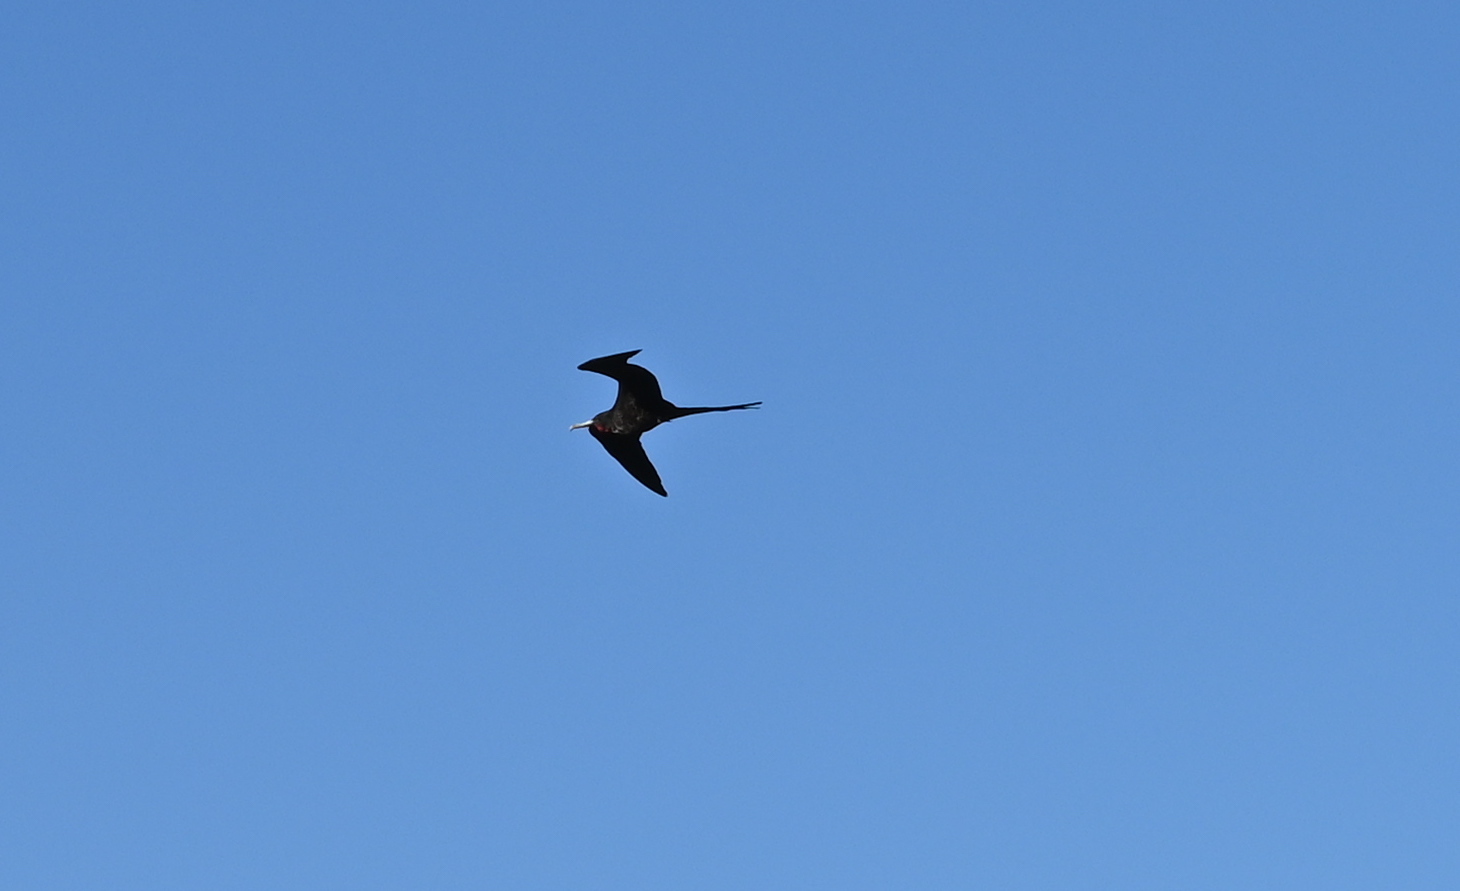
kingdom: Animalia
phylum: Chordata
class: Aves
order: Suliformes
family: Fregatidae
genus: Fregata
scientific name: Fregata magnificens
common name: Magnificent frigatebird
